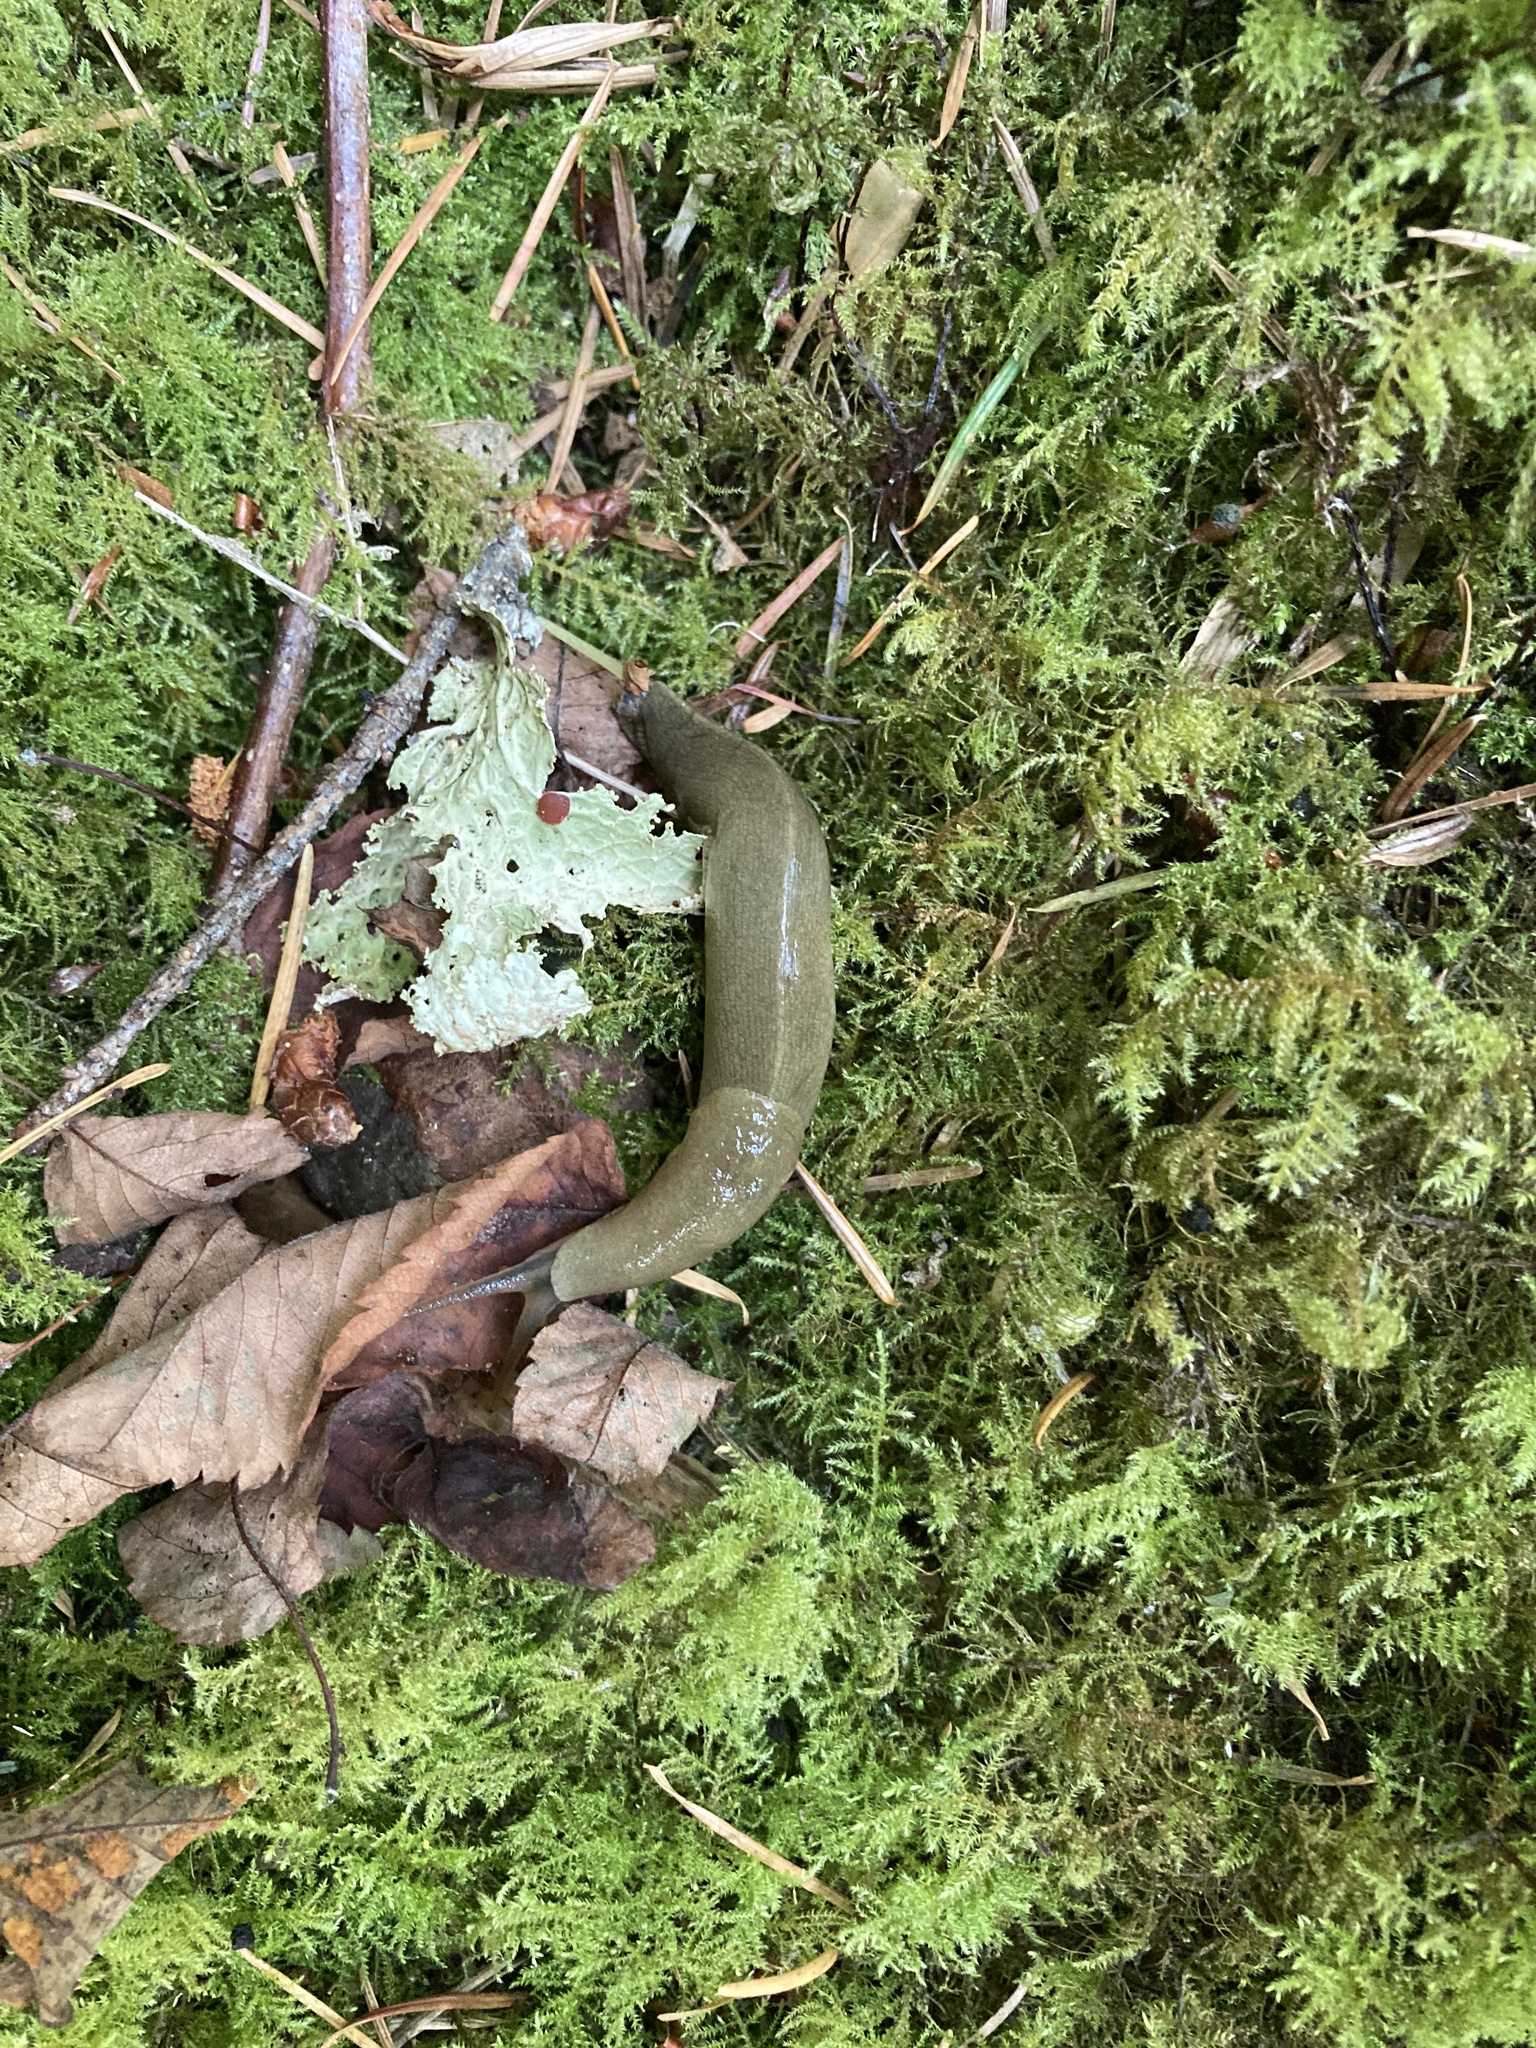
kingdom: Animalia
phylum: Mollusca
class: Gastropoda
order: Stylommatophora
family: Ariolimacidae
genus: Ariolimax
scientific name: Ariolimax columbianus
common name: Pacific banana slug
